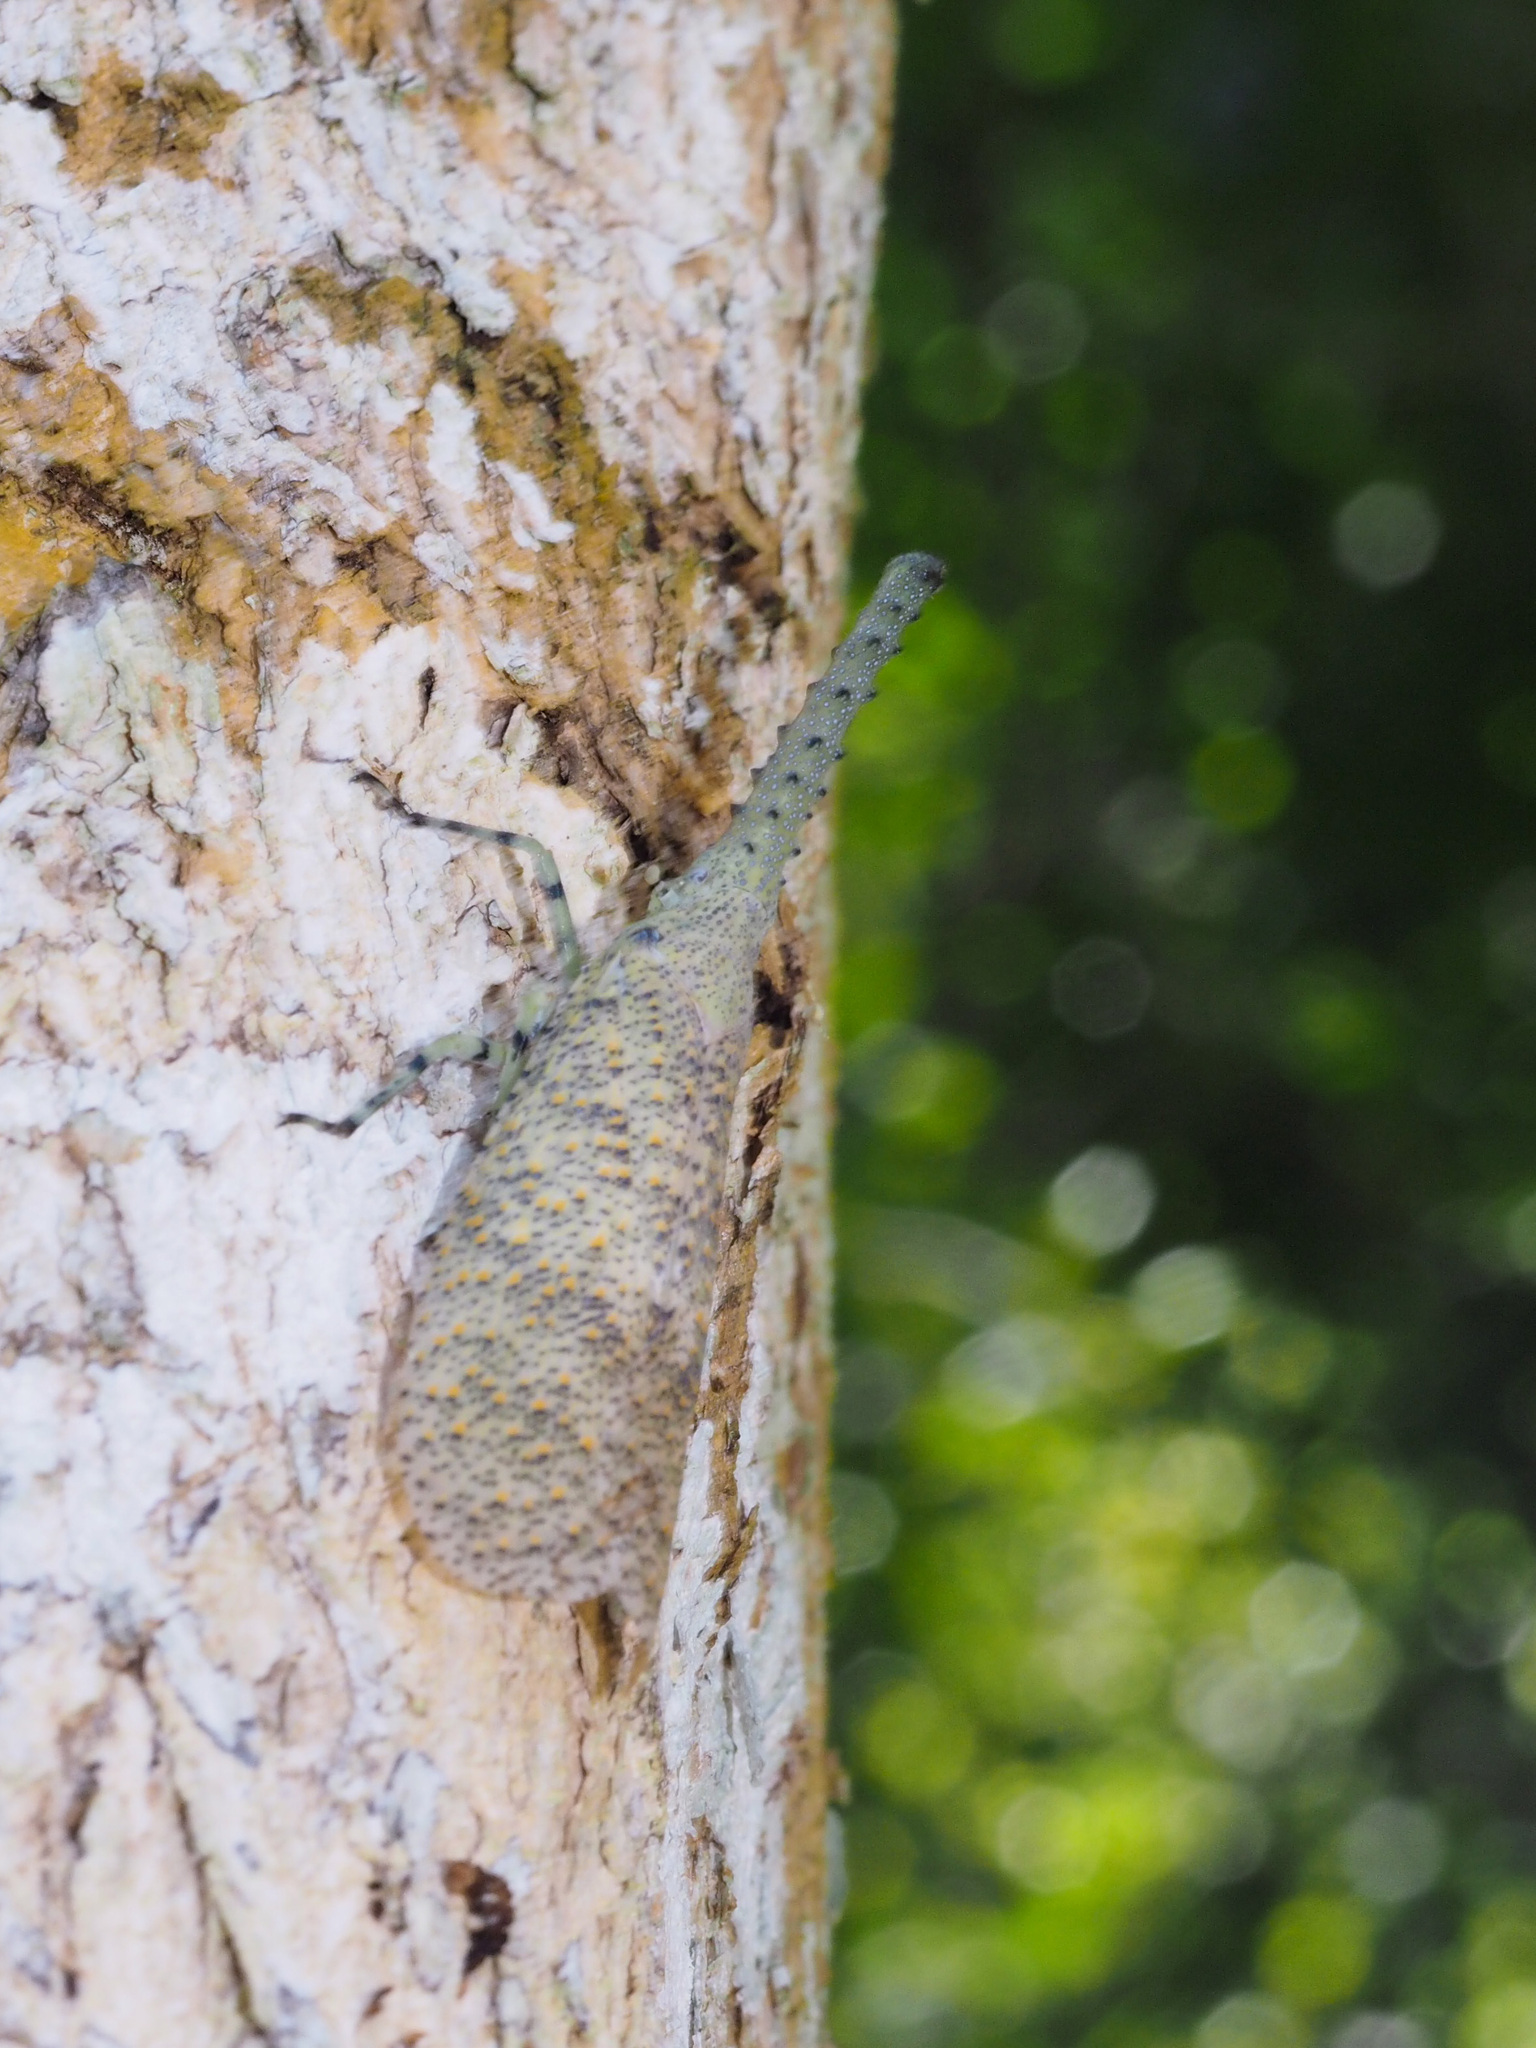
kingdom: Animalia
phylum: Arthropoda
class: Insecta
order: Hemiptera
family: Fulgoridae
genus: Zanna
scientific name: Zanna nobilis
